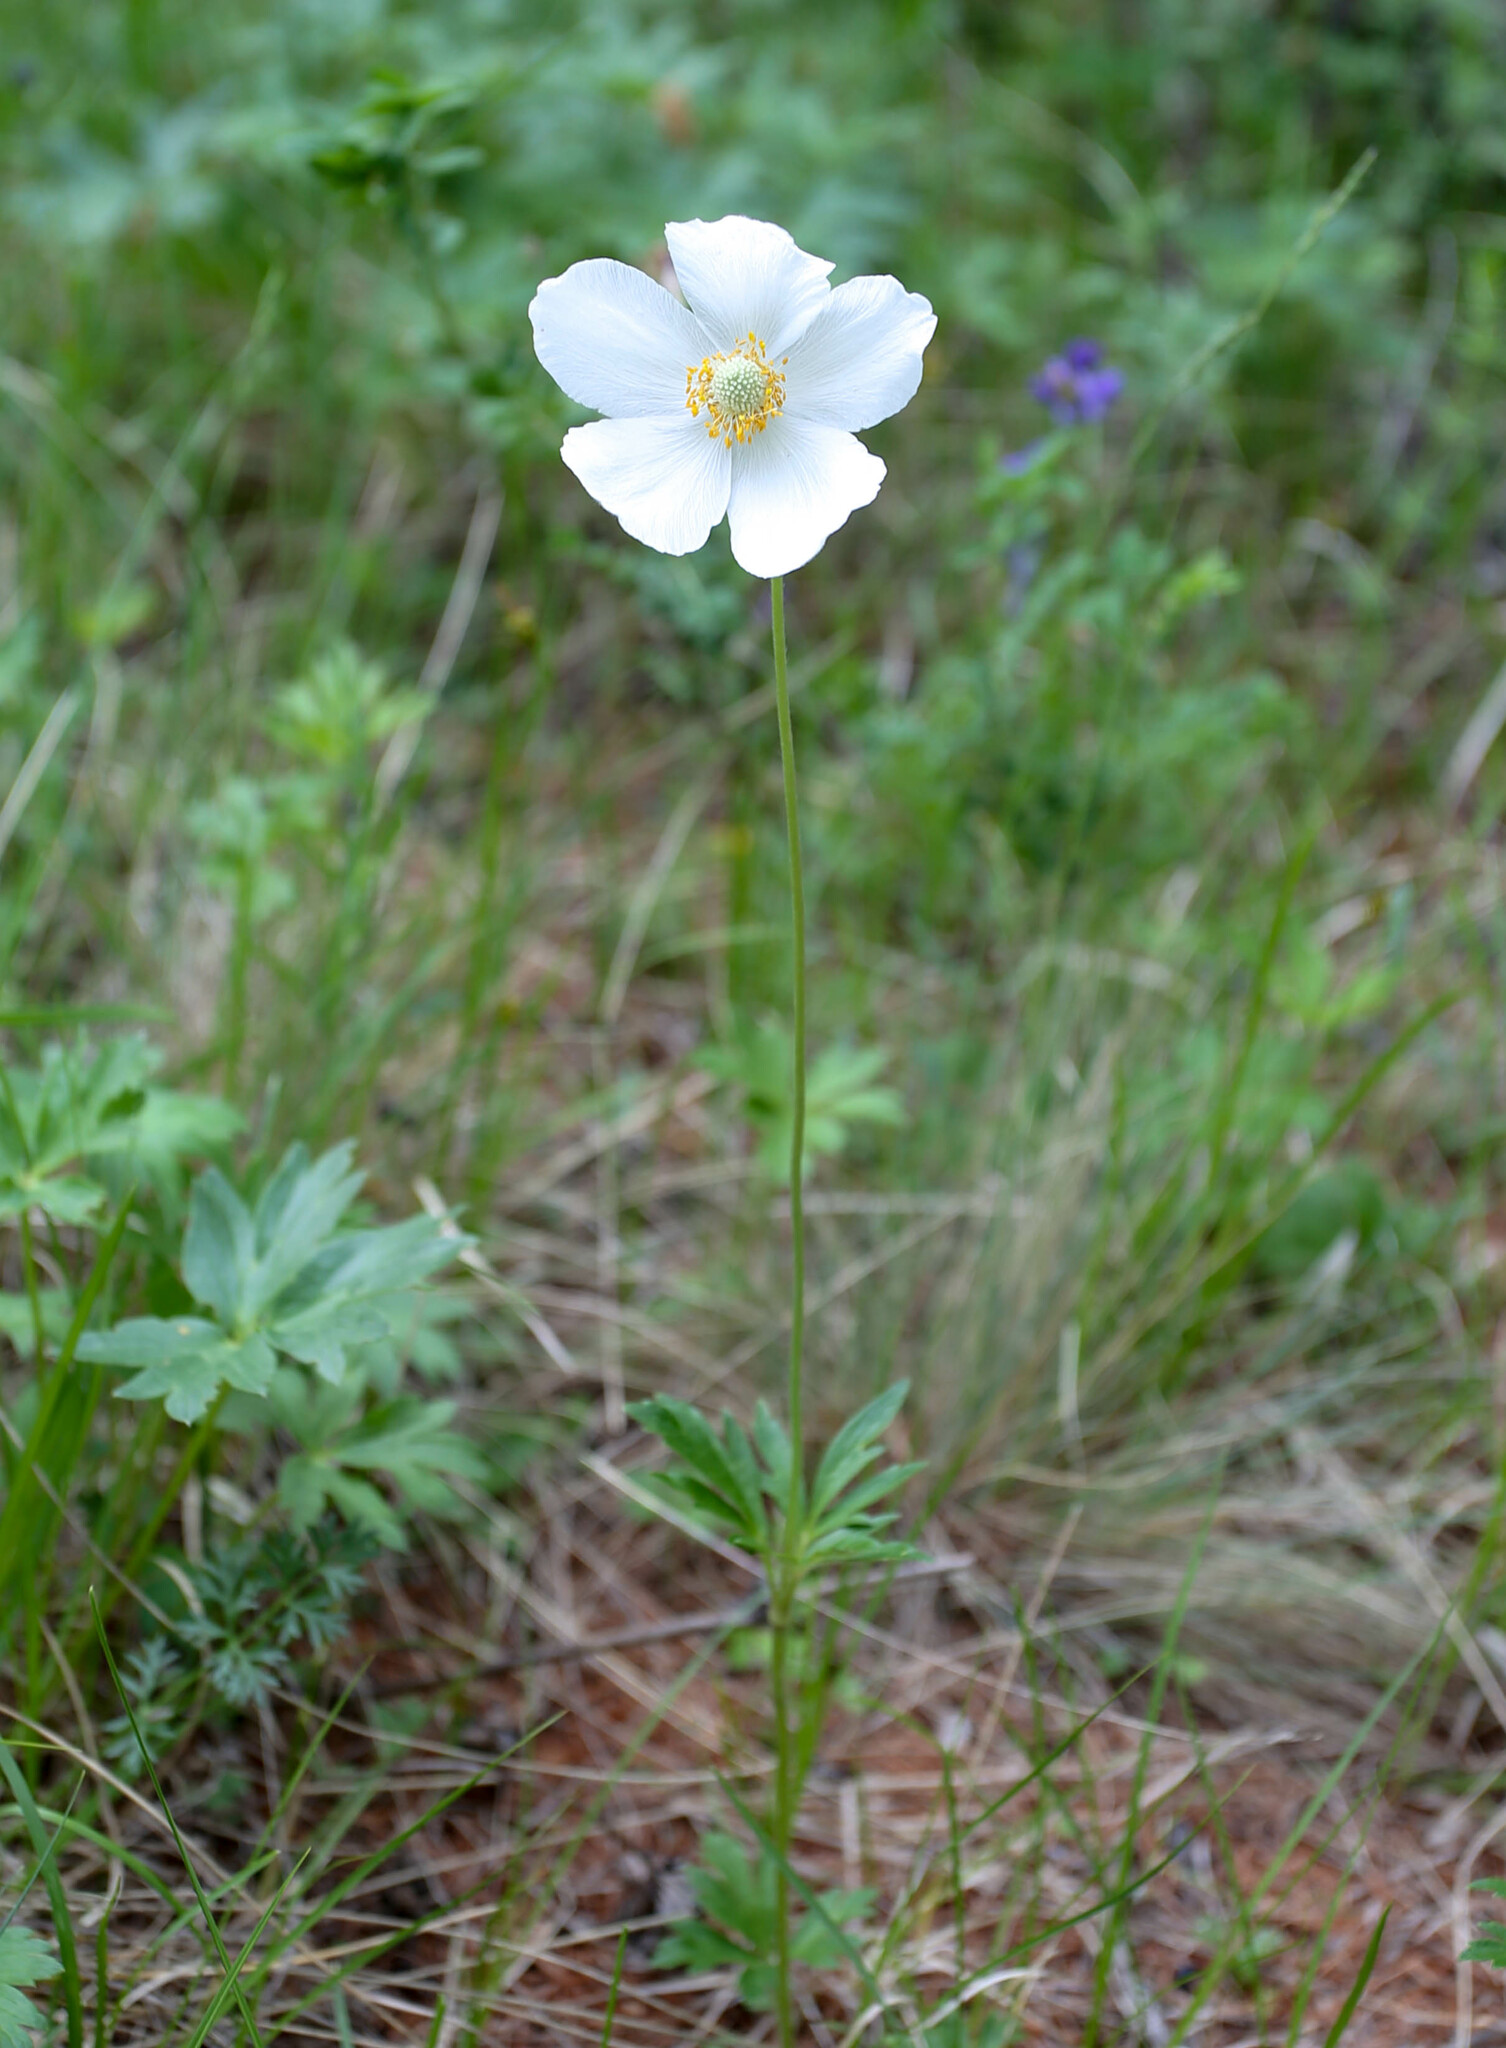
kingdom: Plantae
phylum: Tracheophyta
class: Magnoliopsida
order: Ranunculales
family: Ranunculaceae
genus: Anemone
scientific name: Anemone sylvestris
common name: Snowdrop anemone
